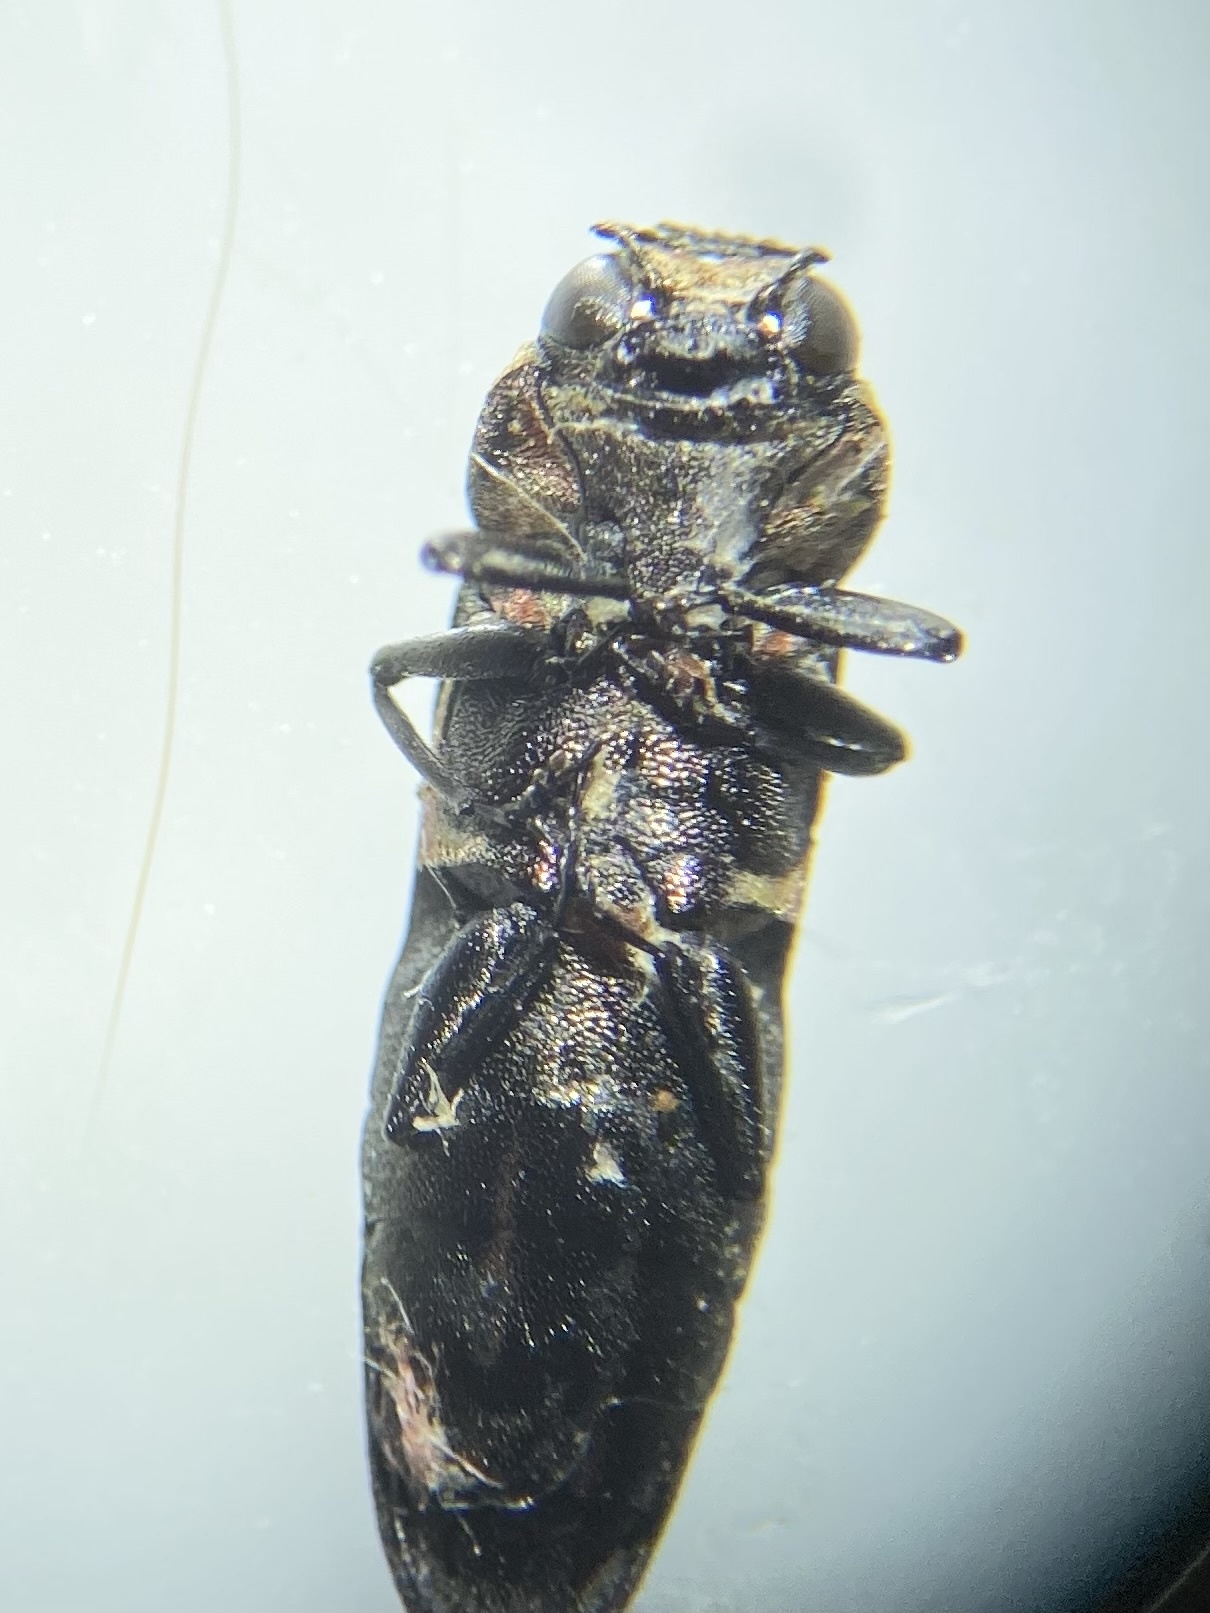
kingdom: Animalia
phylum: Arthropoda
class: Insecta
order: Coleoptera
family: Buprestidae
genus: Agrilus
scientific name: Agrilus benjamini
